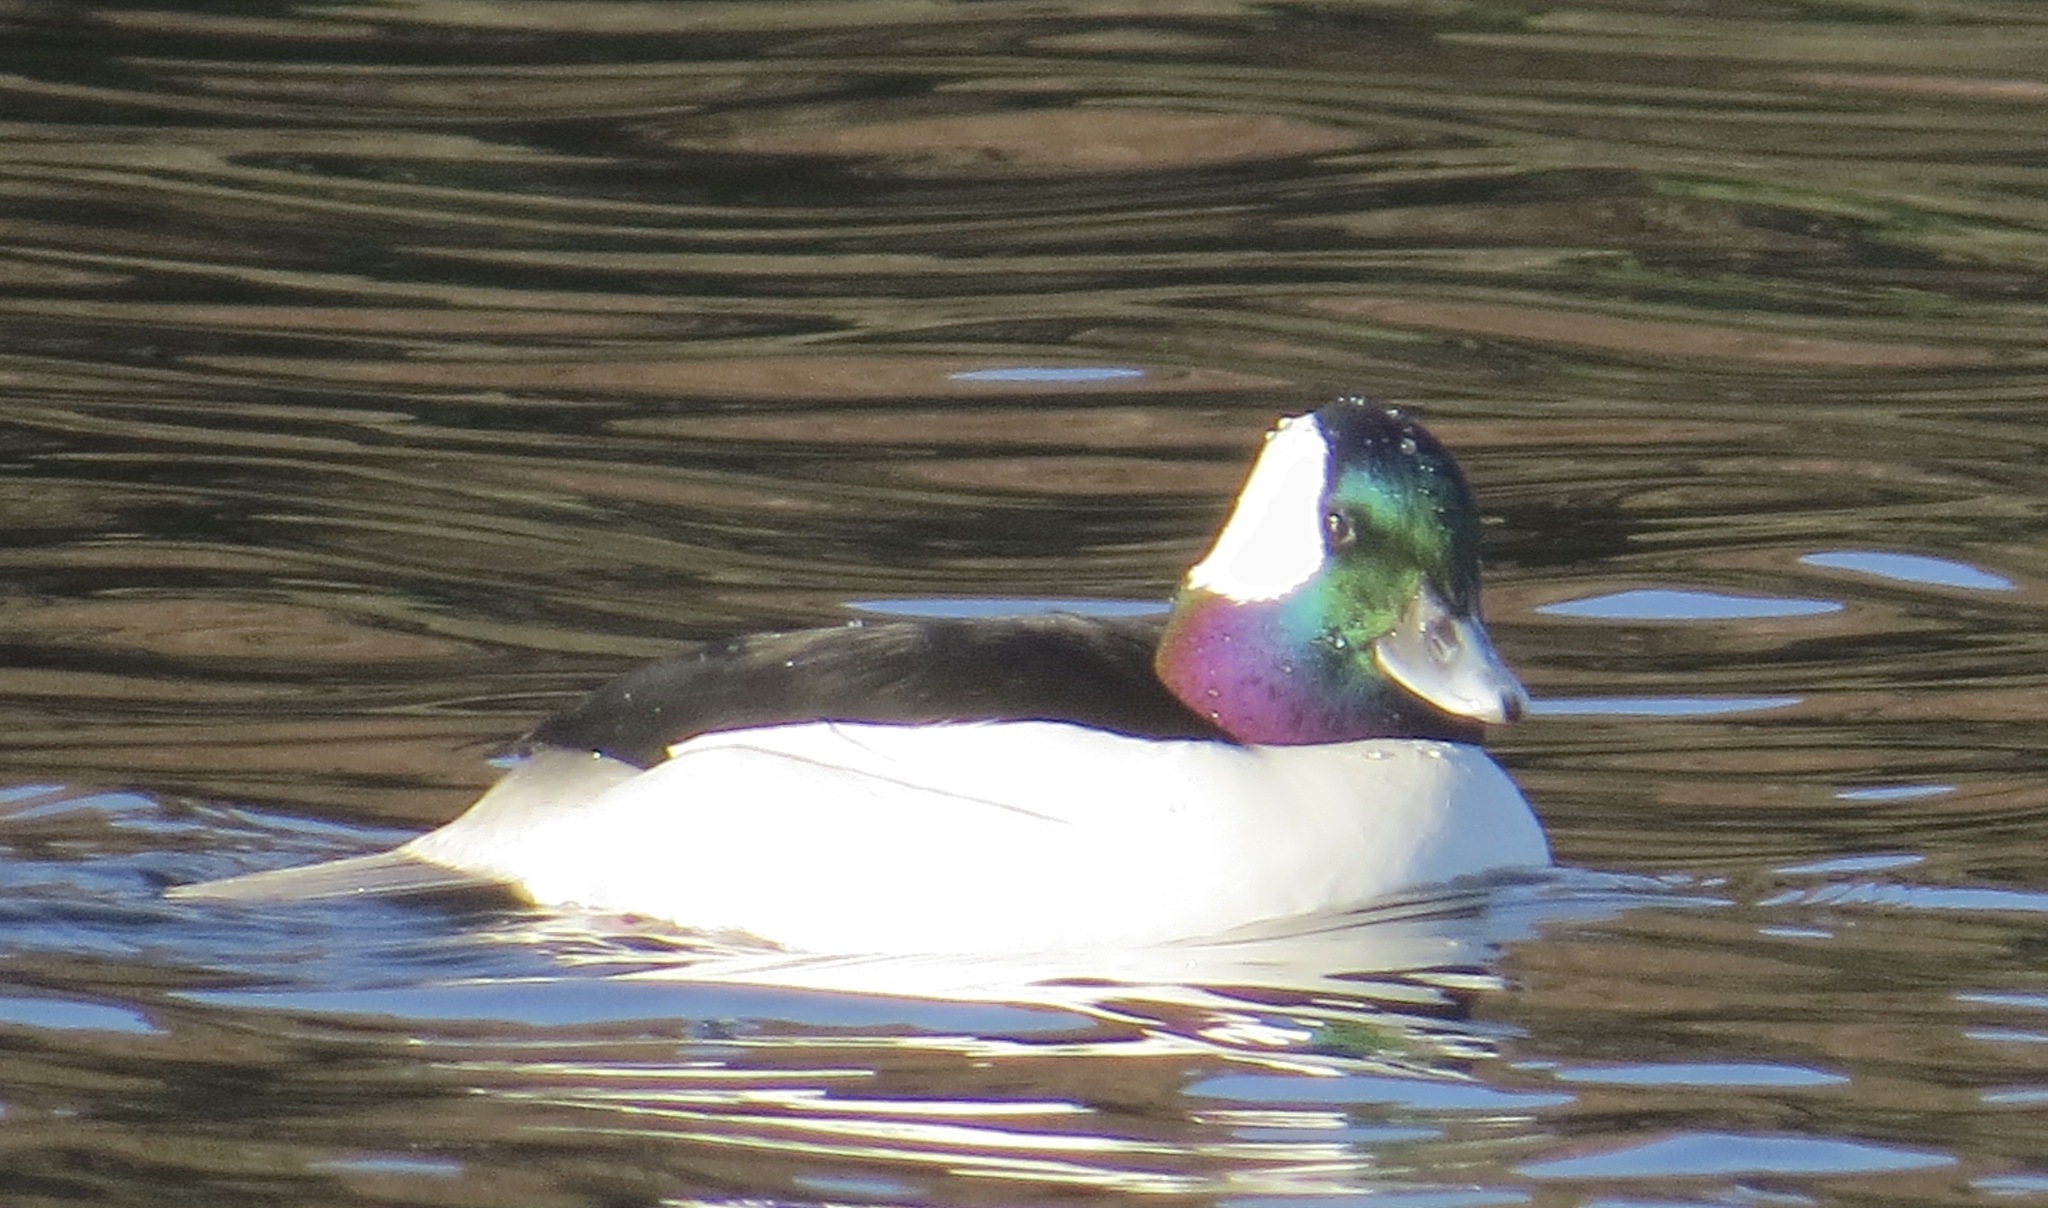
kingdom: Animalia
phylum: Chordata
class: Aves
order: Anseriformes
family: Anatidae
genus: Bucephala
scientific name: Bucephala albeola
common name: Bufflehead
